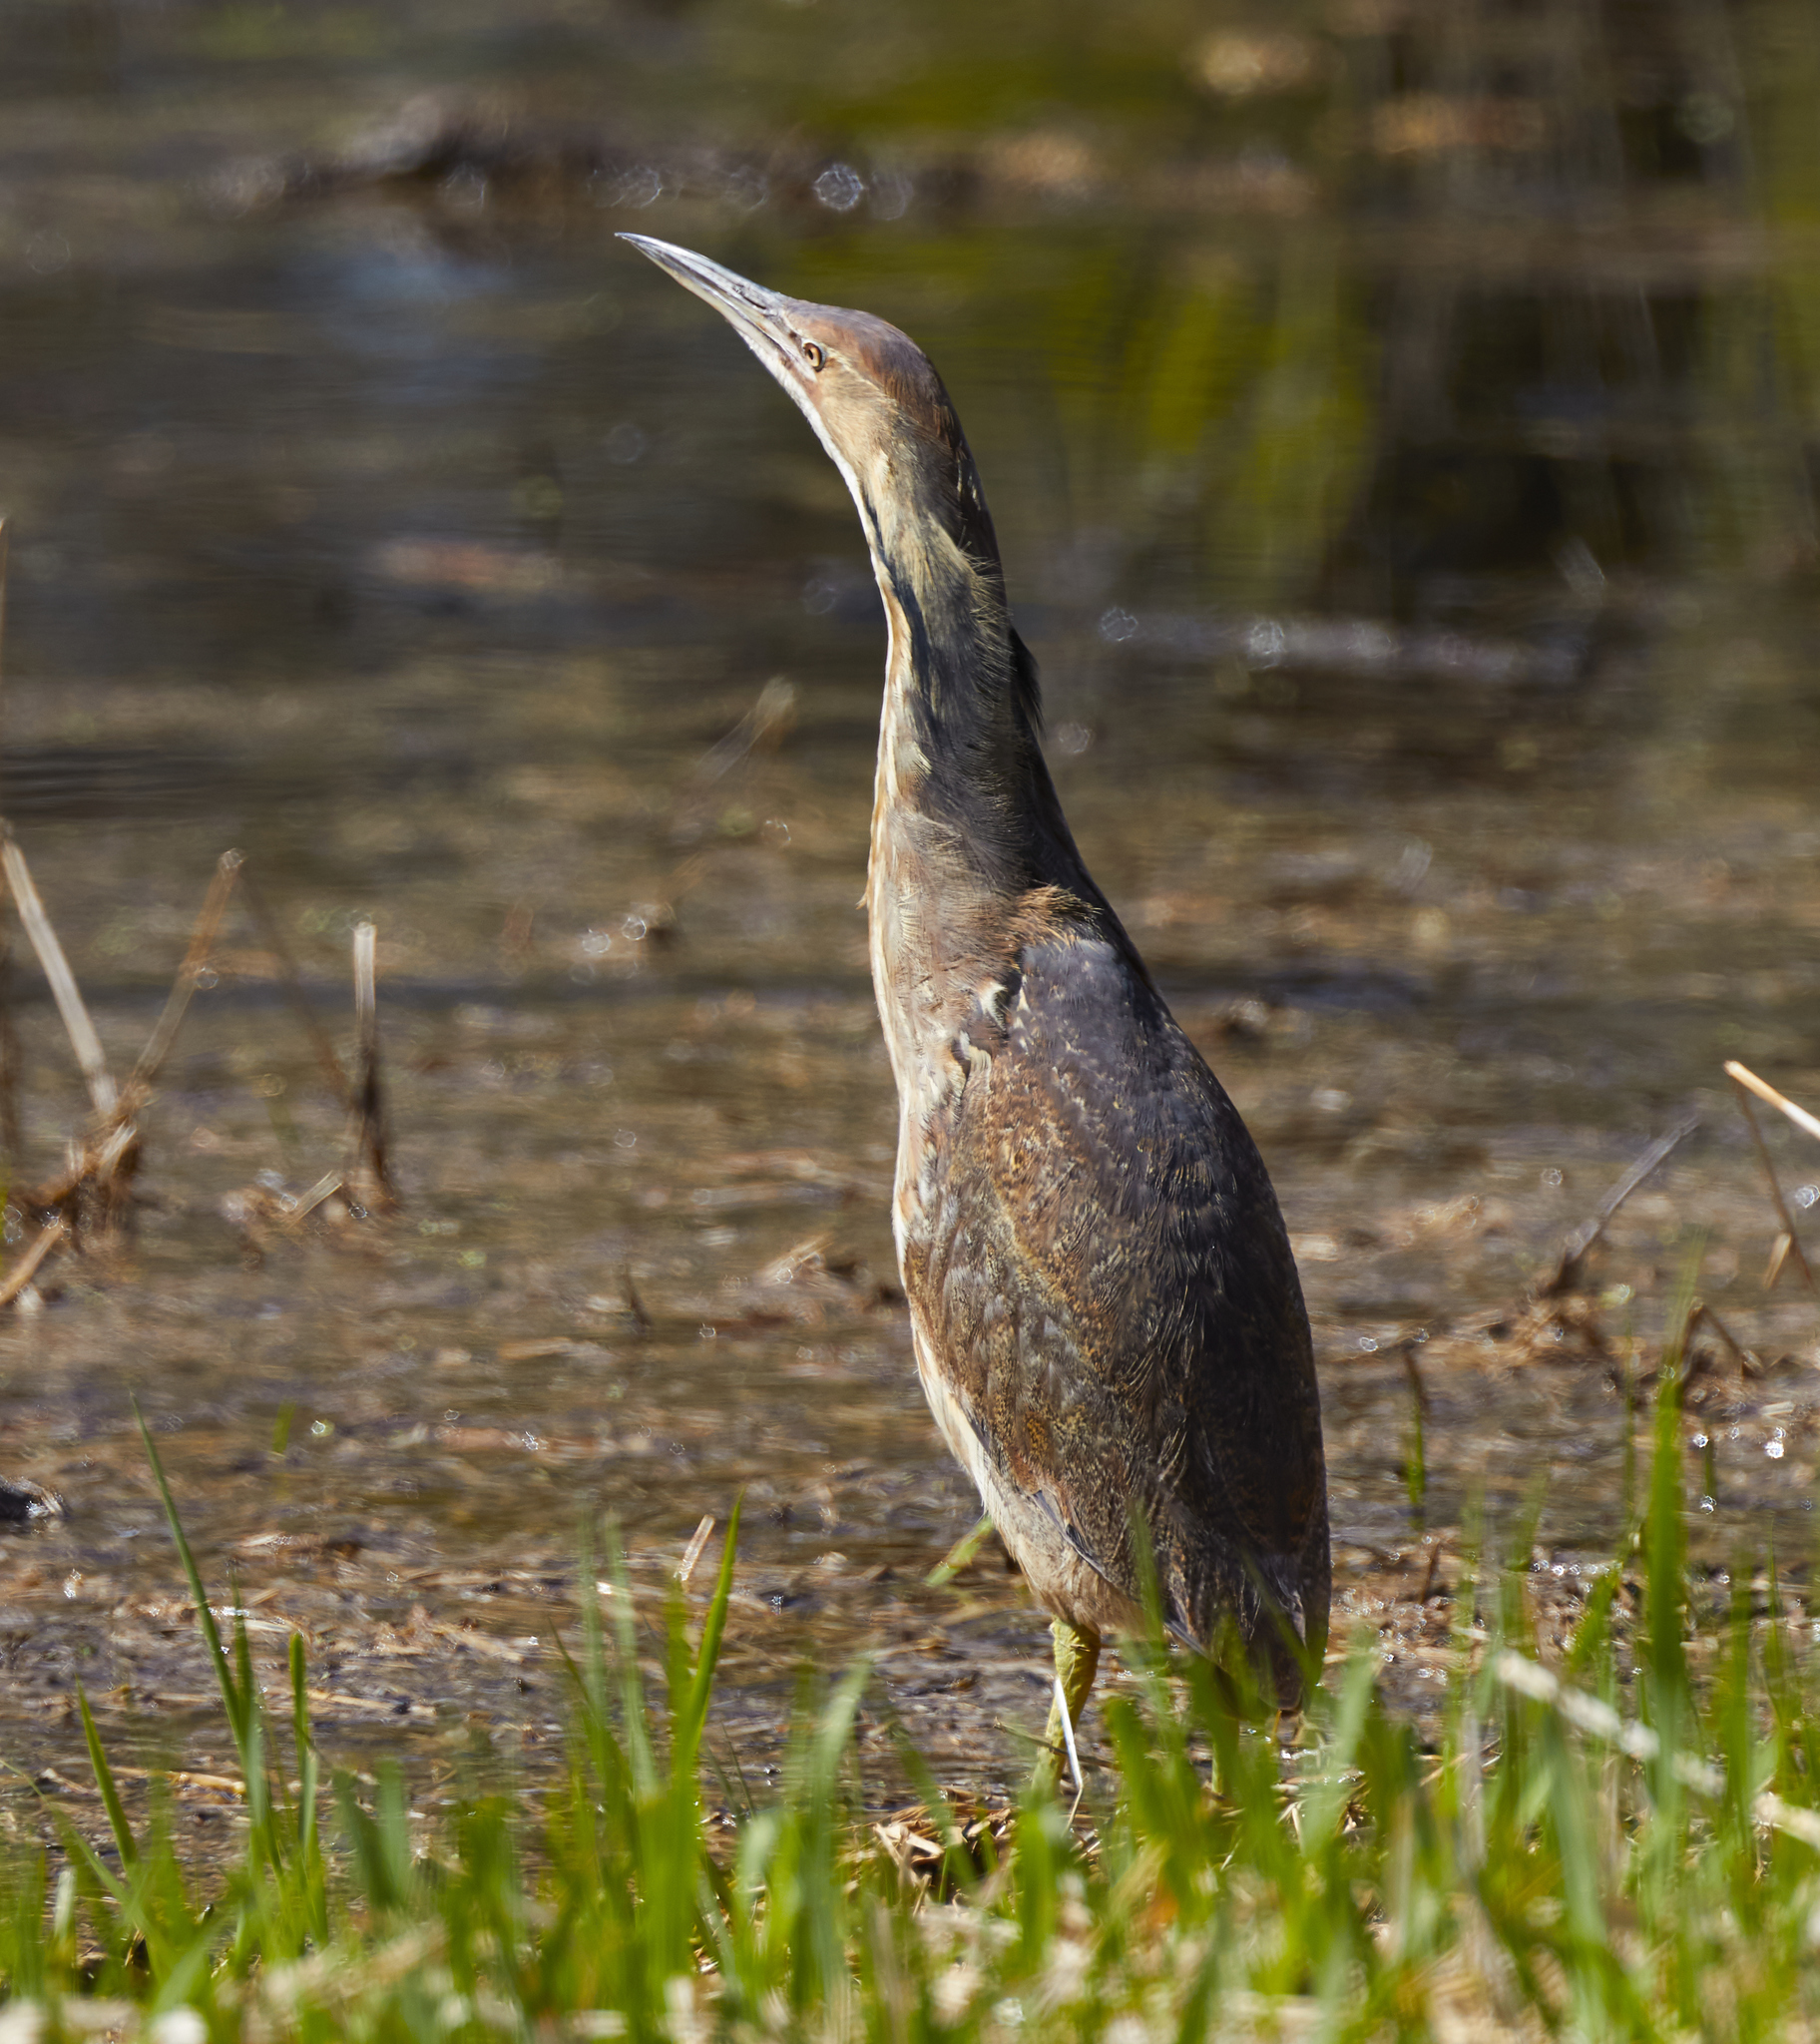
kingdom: Animalia
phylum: Chordata
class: Aves
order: Pelecaniformes
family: Ardeidae
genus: Botaurus
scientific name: Botaurus lentiginosus
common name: American bittern
